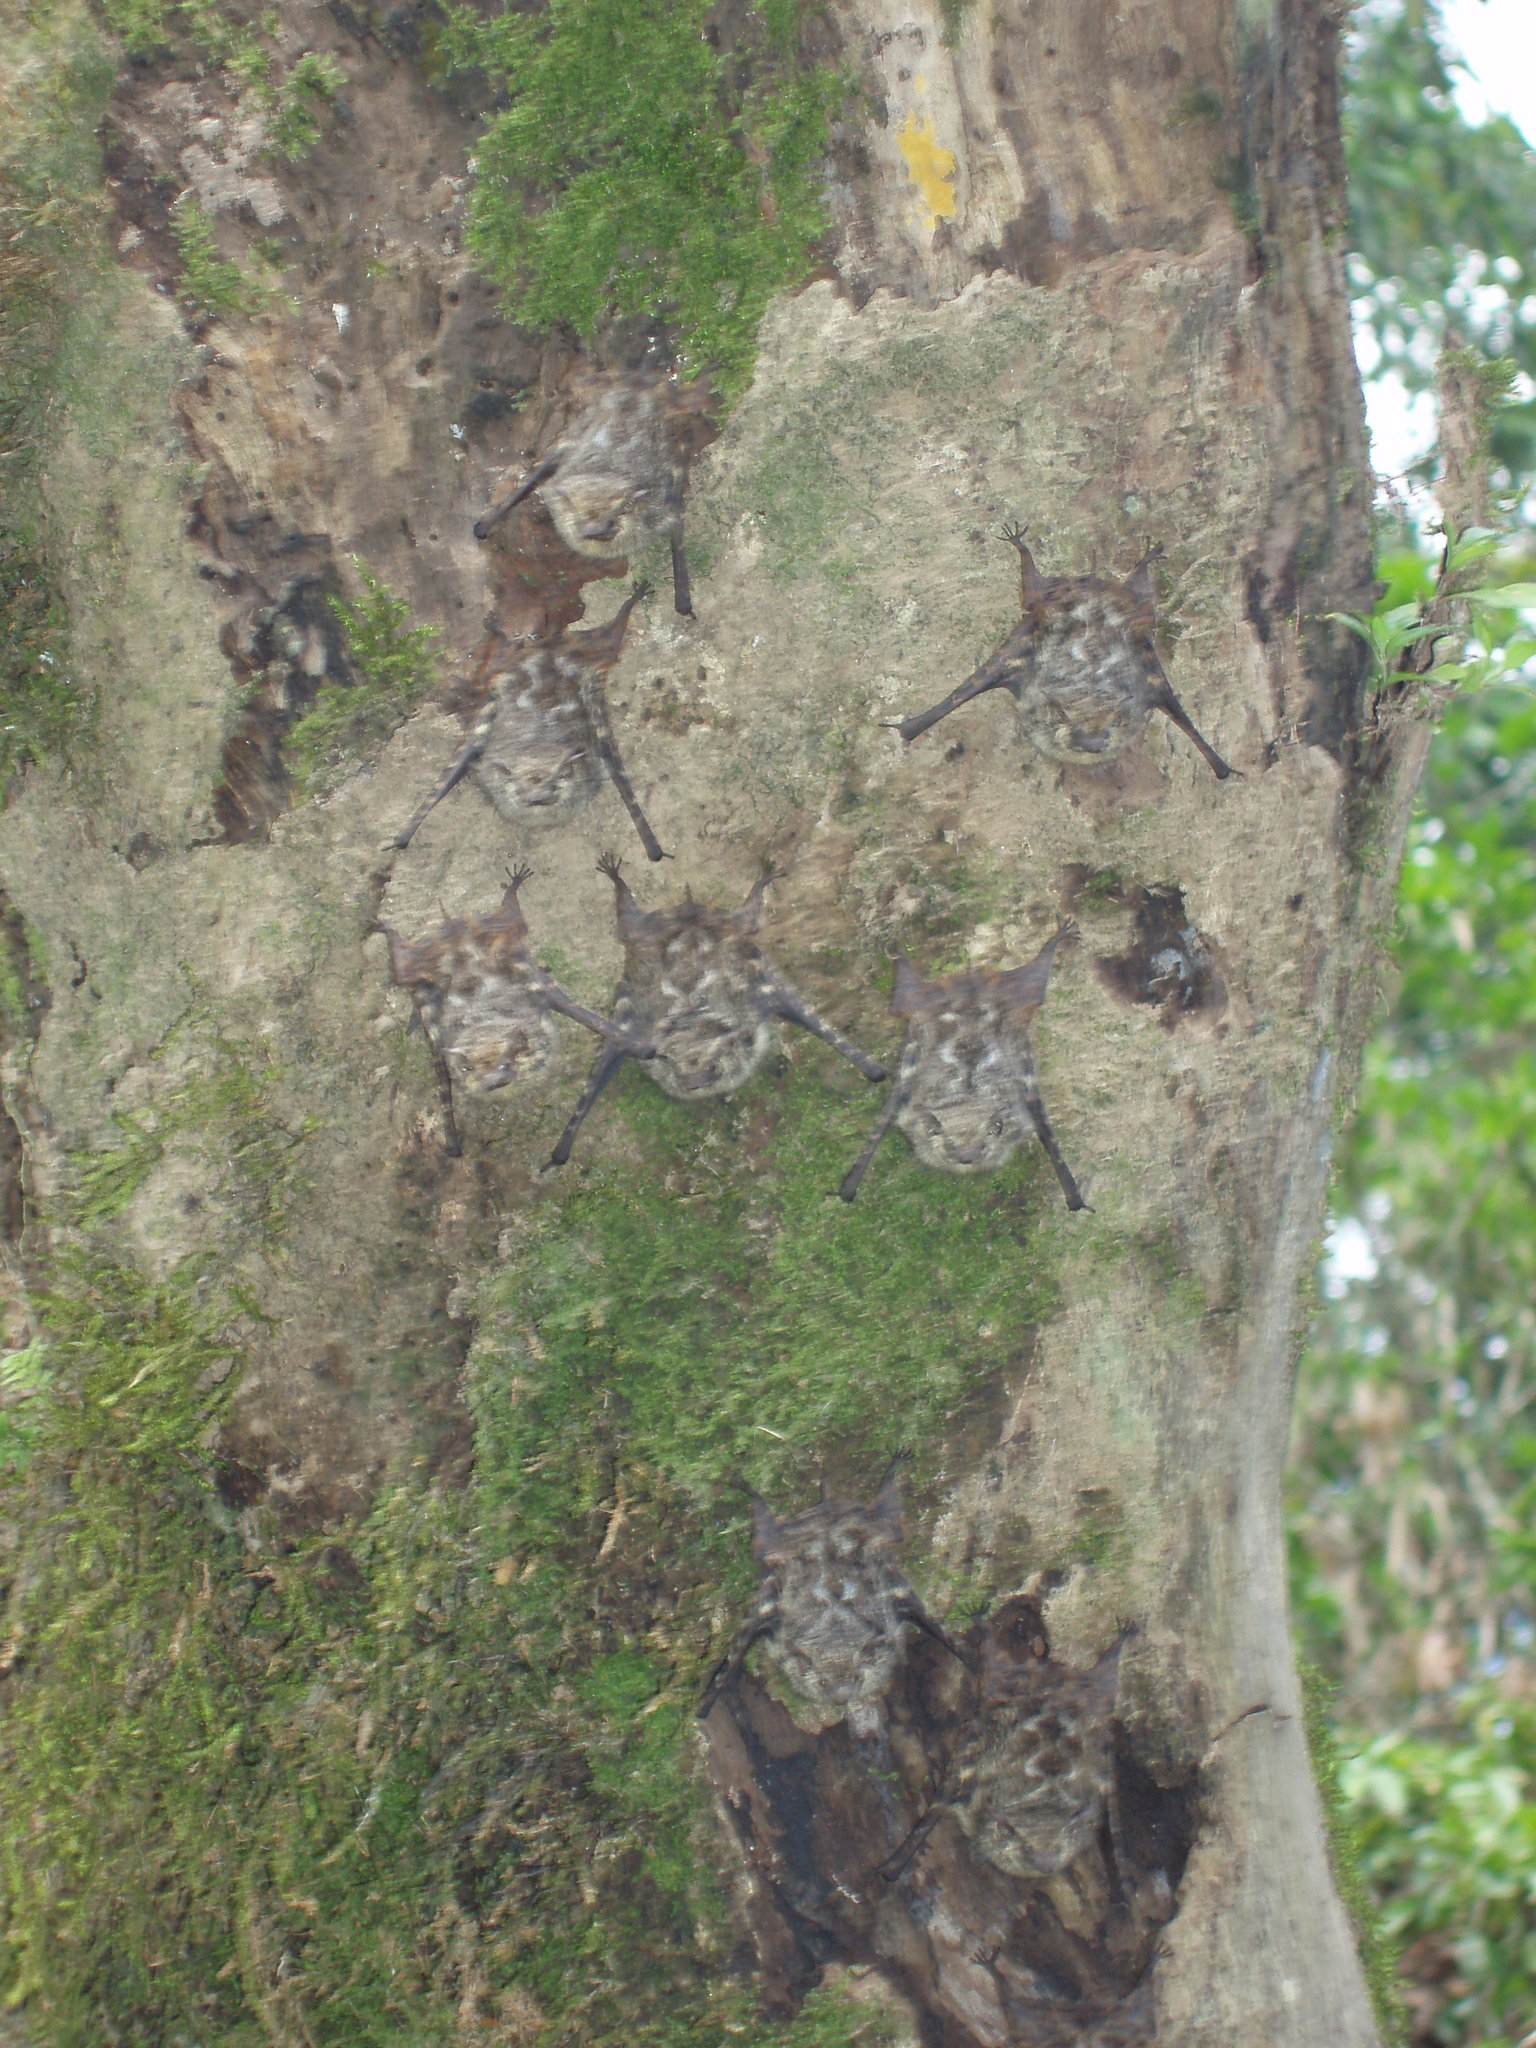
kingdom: Animalia
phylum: Chordata
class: Mammalia
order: Chiroptera
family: Emballonuridae
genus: Rhynchonycteris
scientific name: Rhynchonycteris naso
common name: Proboscis bat
